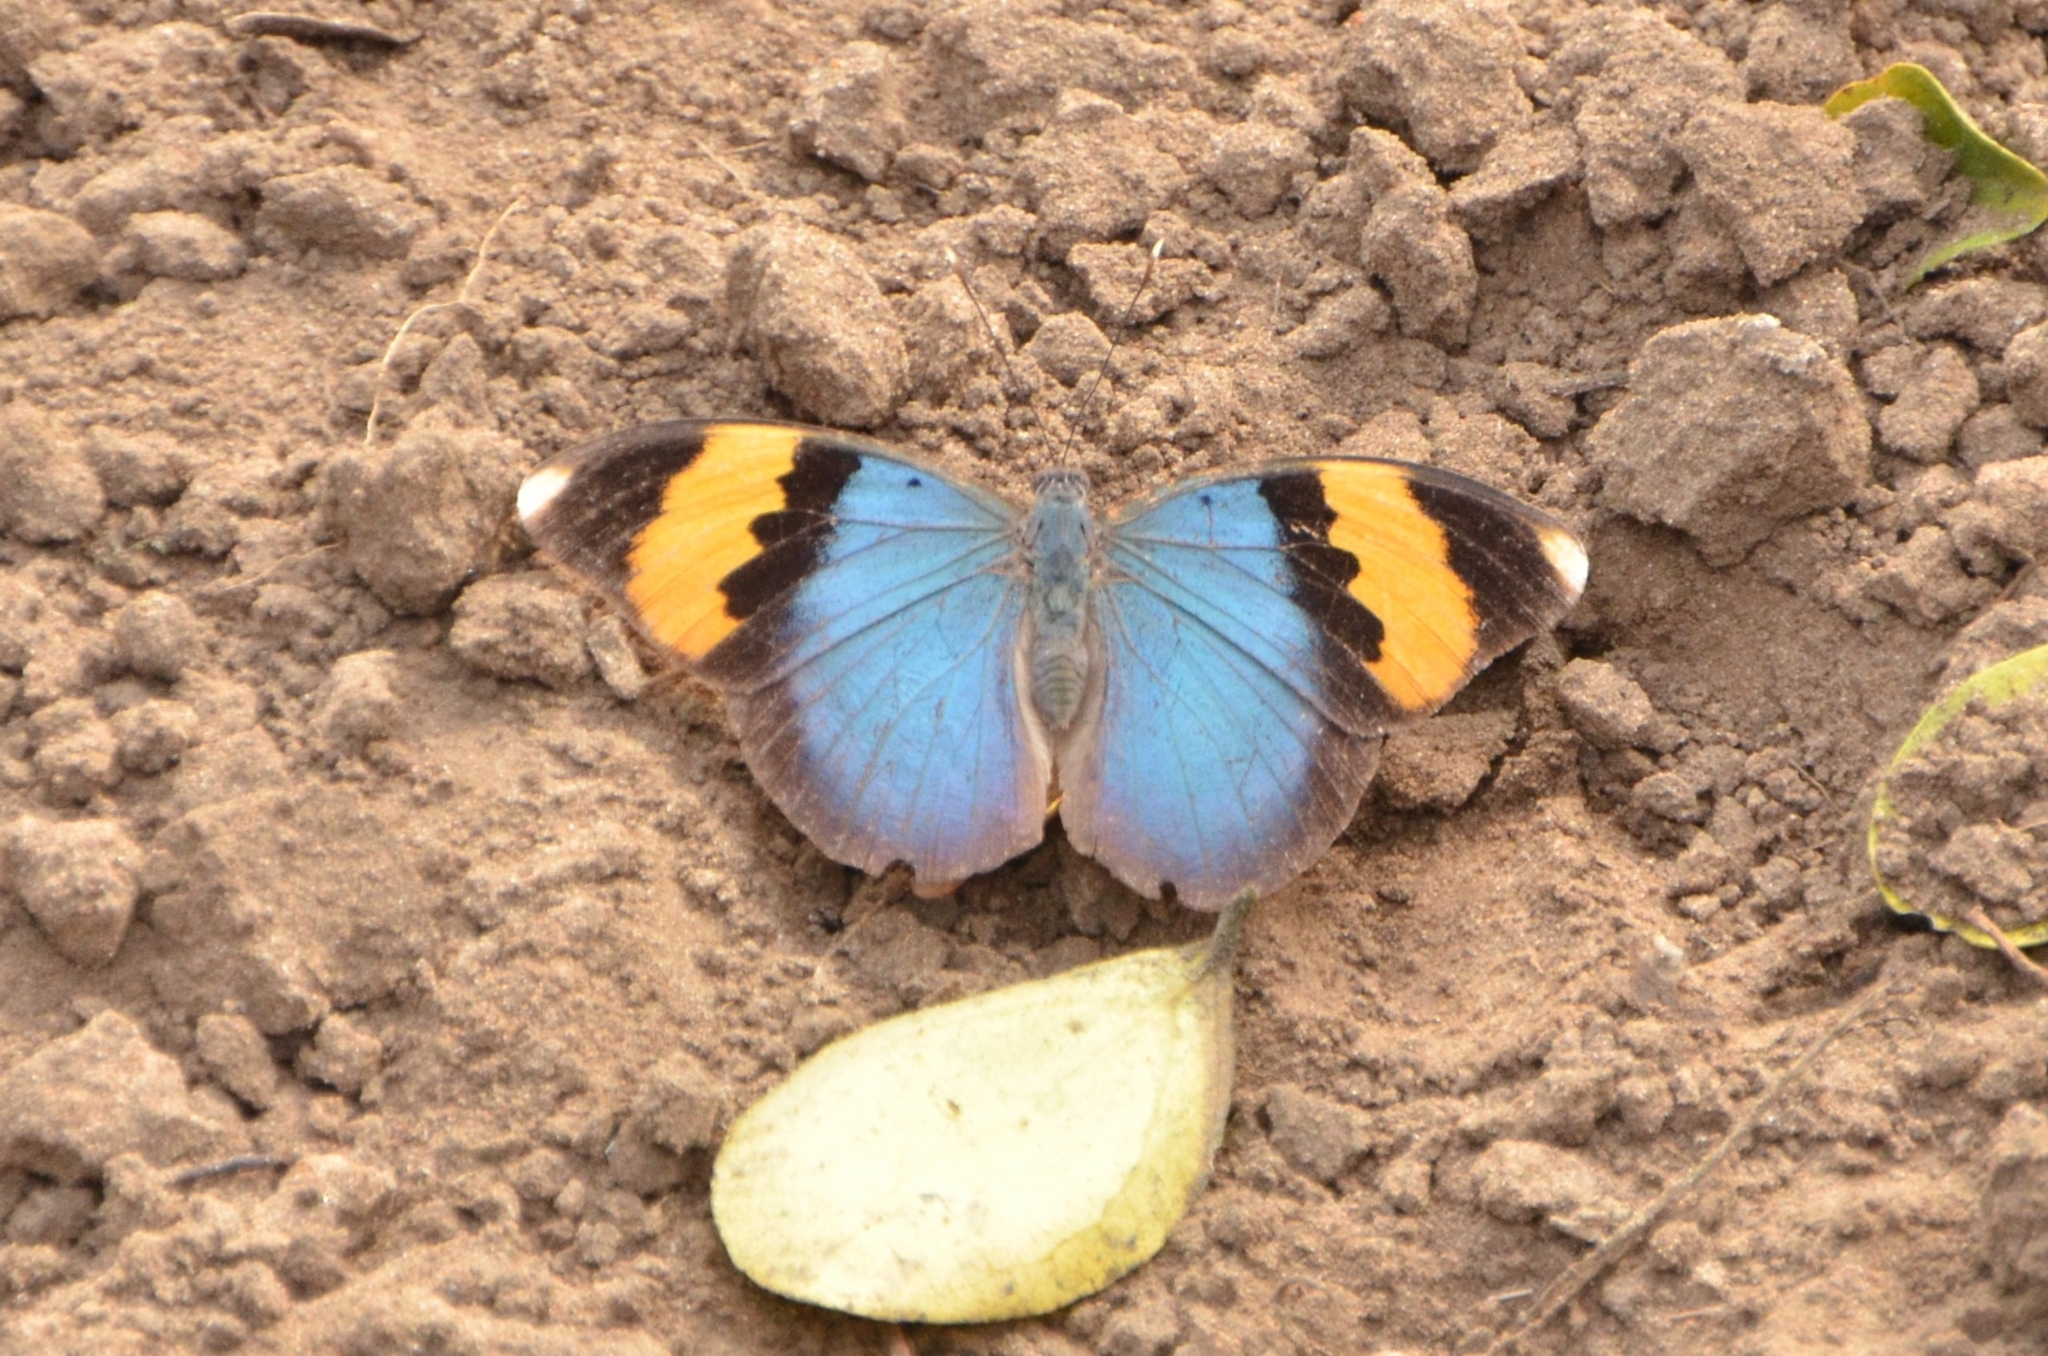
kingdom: Animalia
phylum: Arthropoda
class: Insecta
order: Lepidoptera
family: Nymphalidae
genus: Euphaedra
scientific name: Euphaedra neophron
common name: Gold-banded forester
